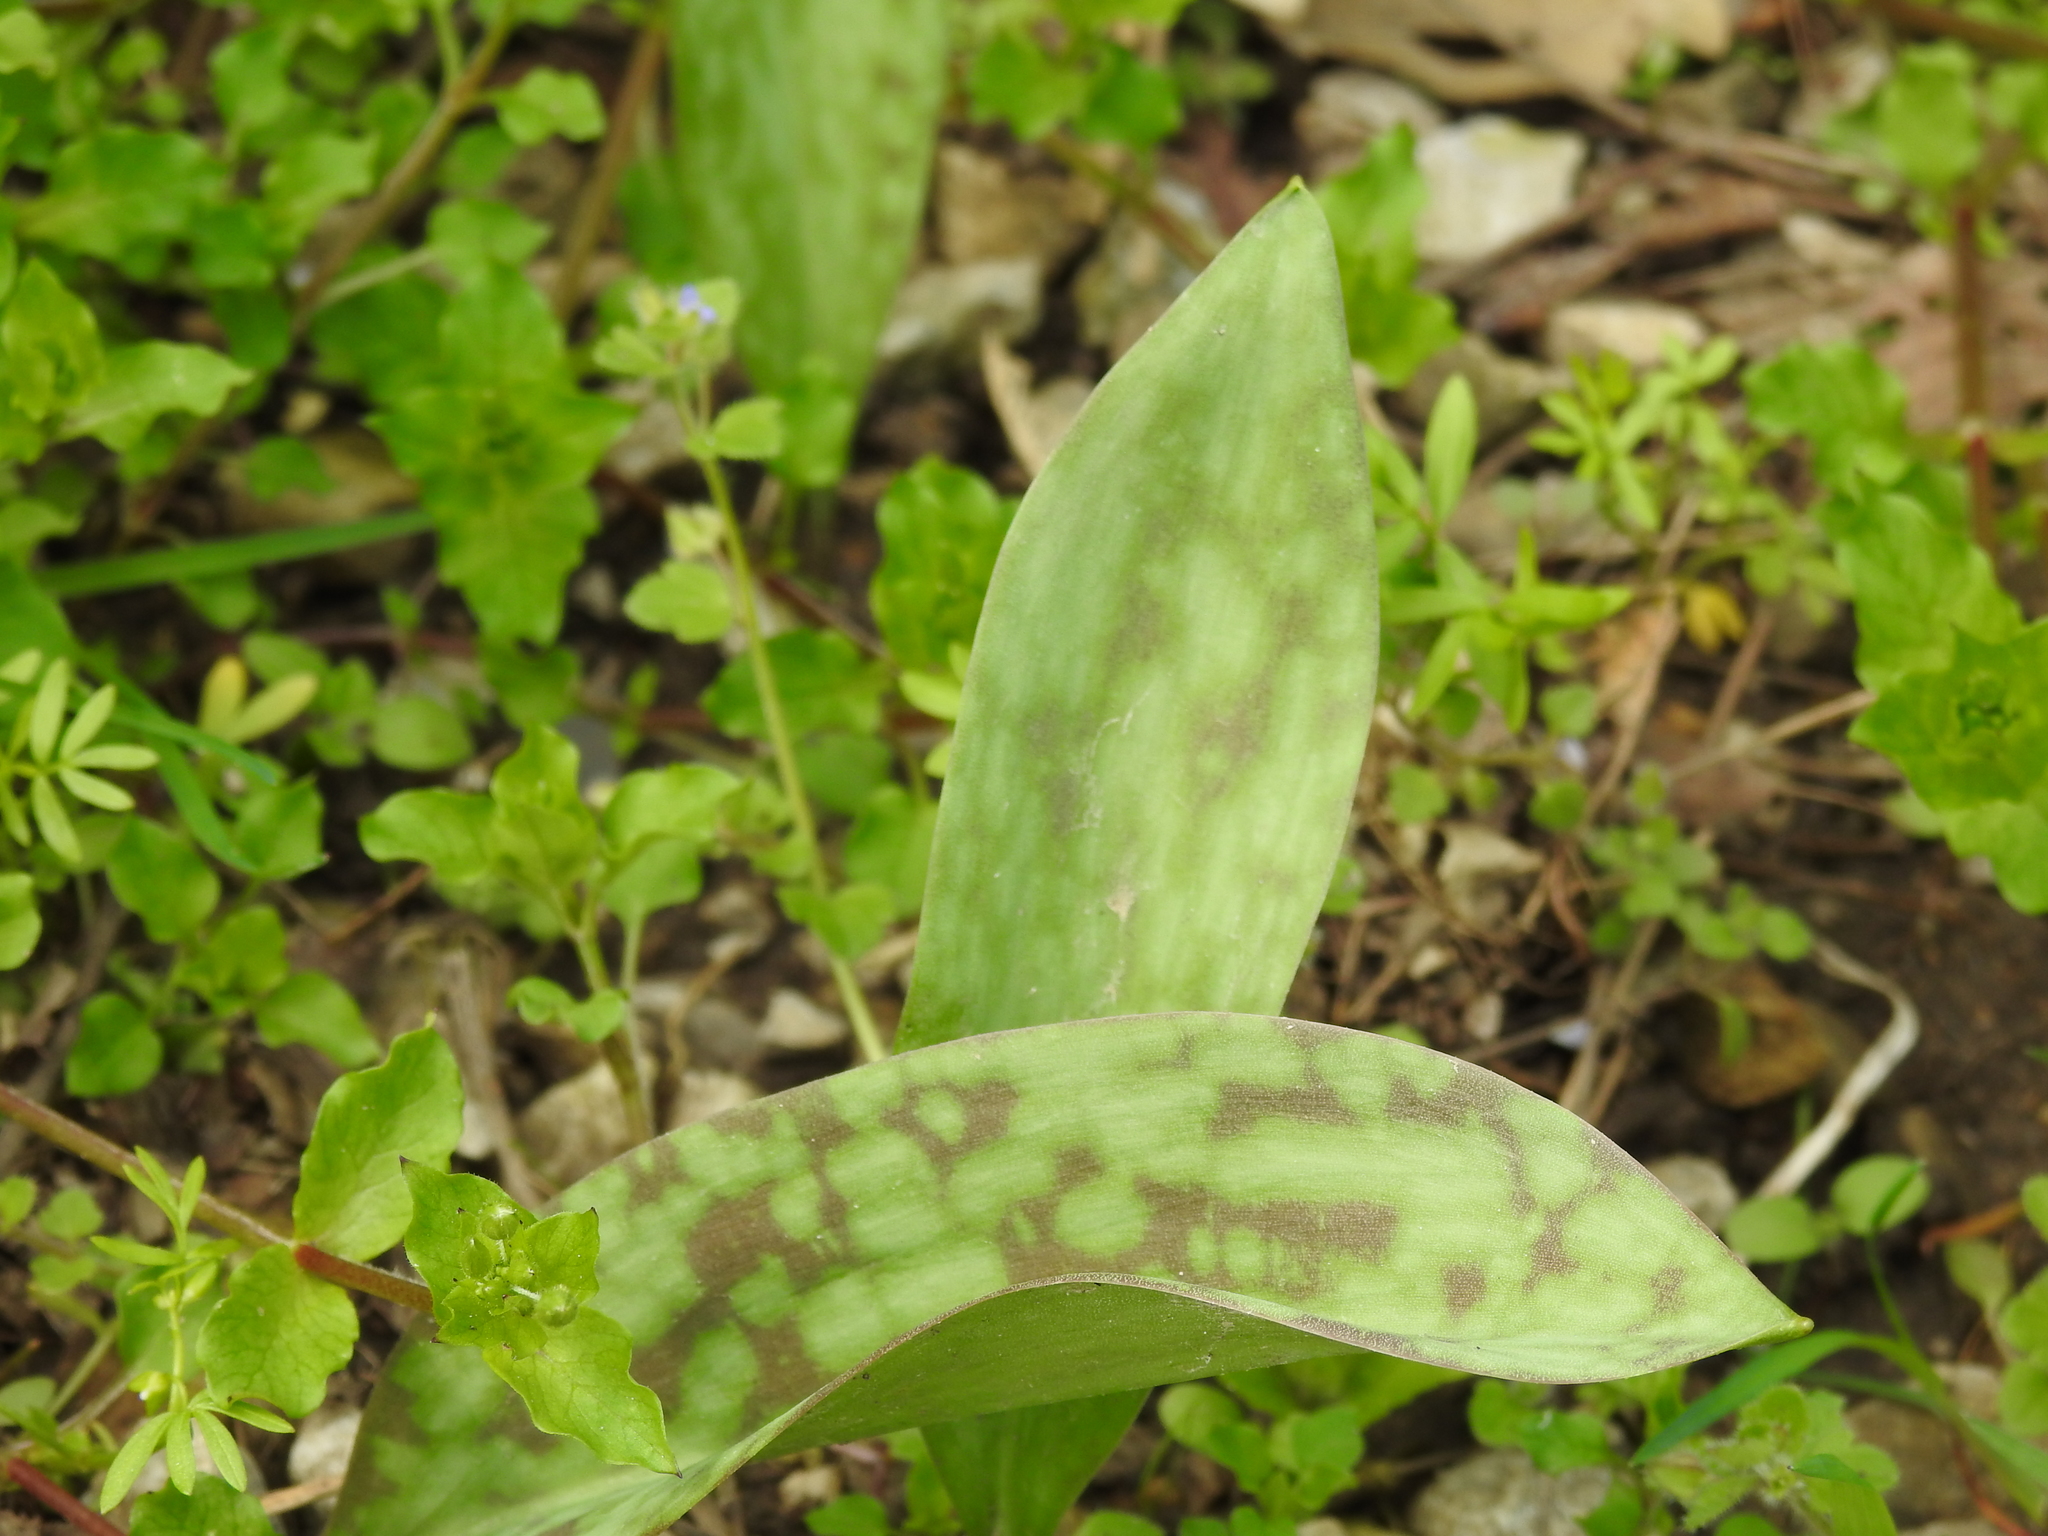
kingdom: Plantae
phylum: Tracheophyta
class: Liliopsida
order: Liliales
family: Liliaceae
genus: Erythronium
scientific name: Erythronium
